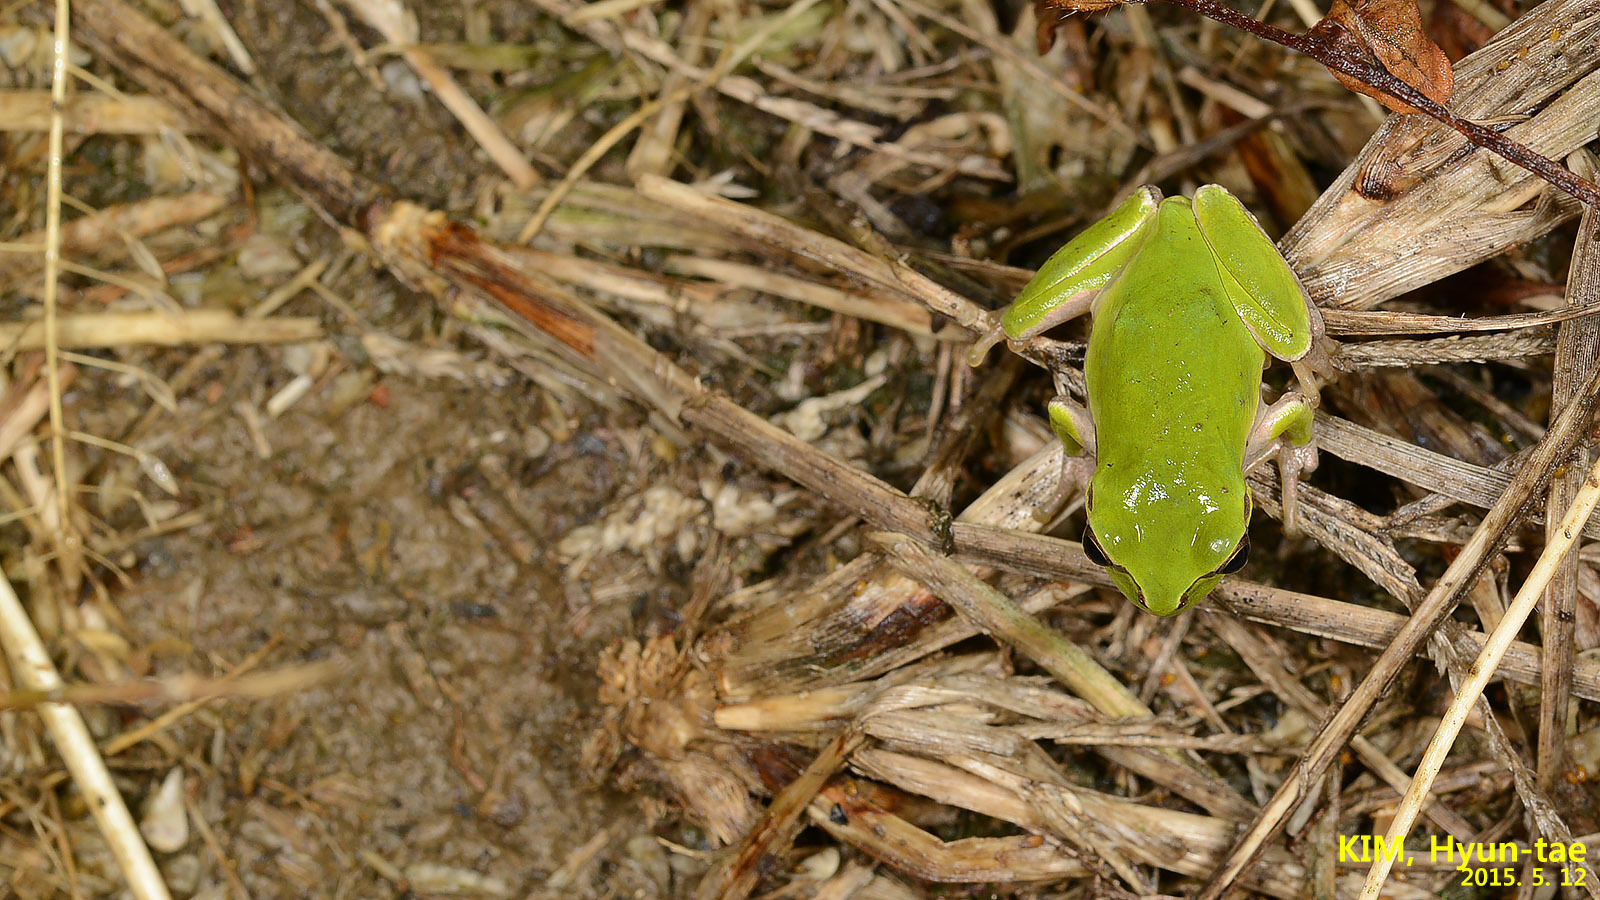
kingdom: Animalia
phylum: Chordata
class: Amphibia
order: Anura
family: Hylidae
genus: Dryophytes
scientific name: Dryophytes japonicus
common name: Japanese treefrog
